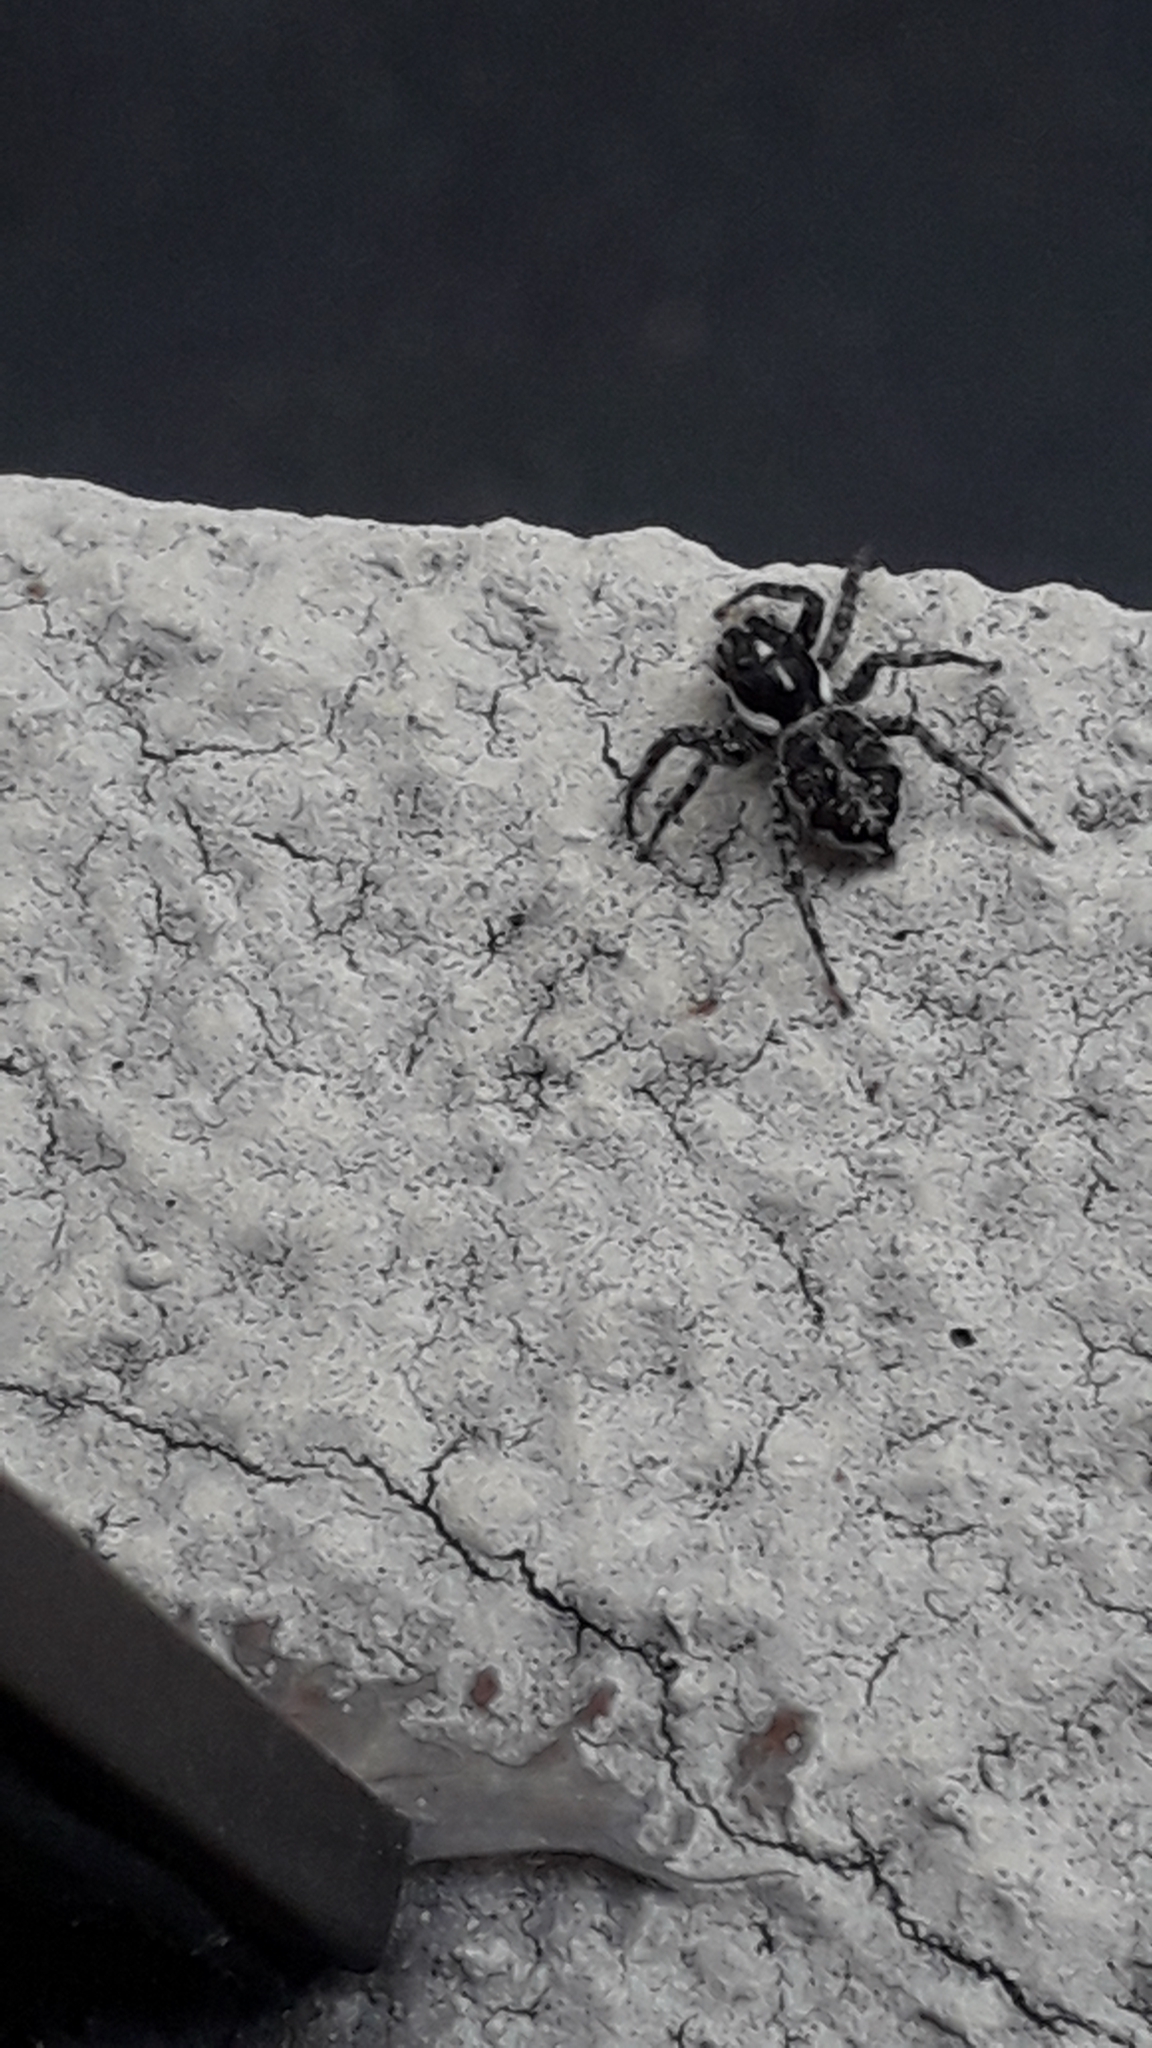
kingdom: Animalia
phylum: Arthropoda
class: Arachnida
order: Araneae
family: Salticidae
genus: Menemerus
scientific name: Menemerus semilimbatus
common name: Jumping spider
